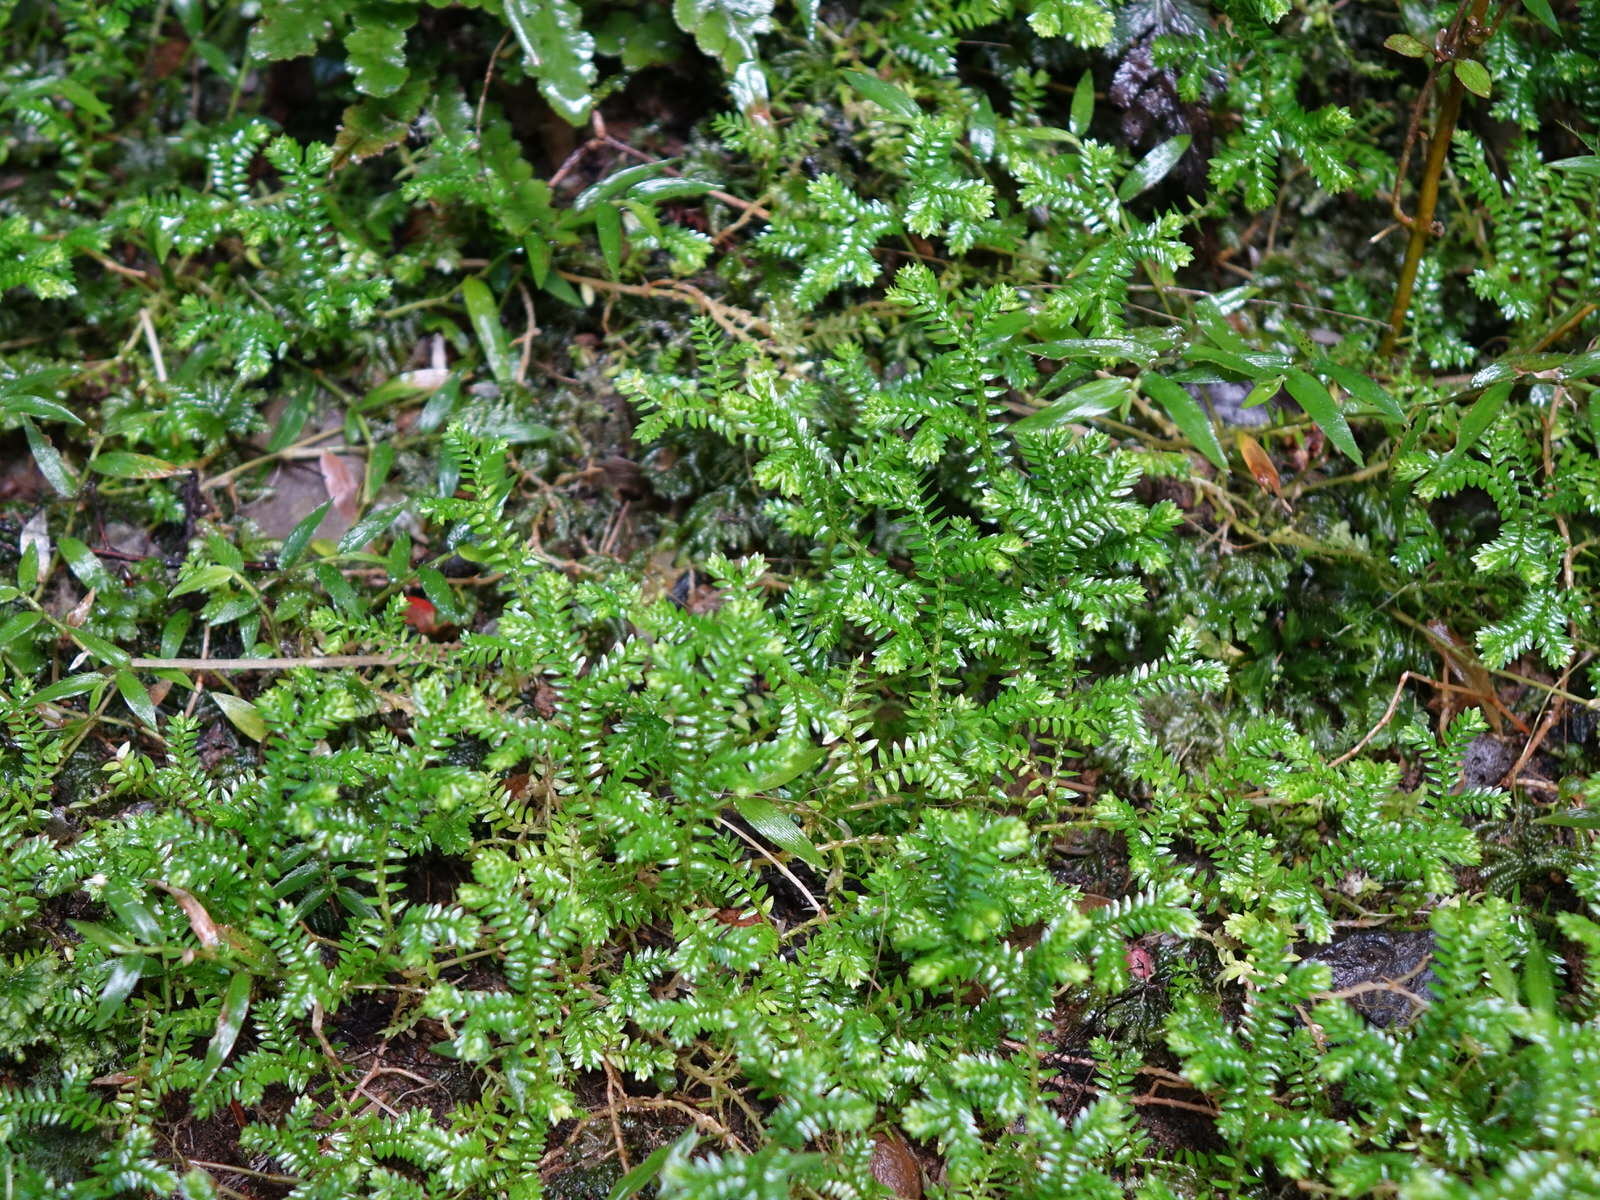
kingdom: Plantae
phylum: Tracheophyta
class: Lycopodiopsida
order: Selaginellales
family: Selaginellaceae
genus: Selaginella
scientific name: Selaginella kraussiana
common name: Krauss' spikemoss
